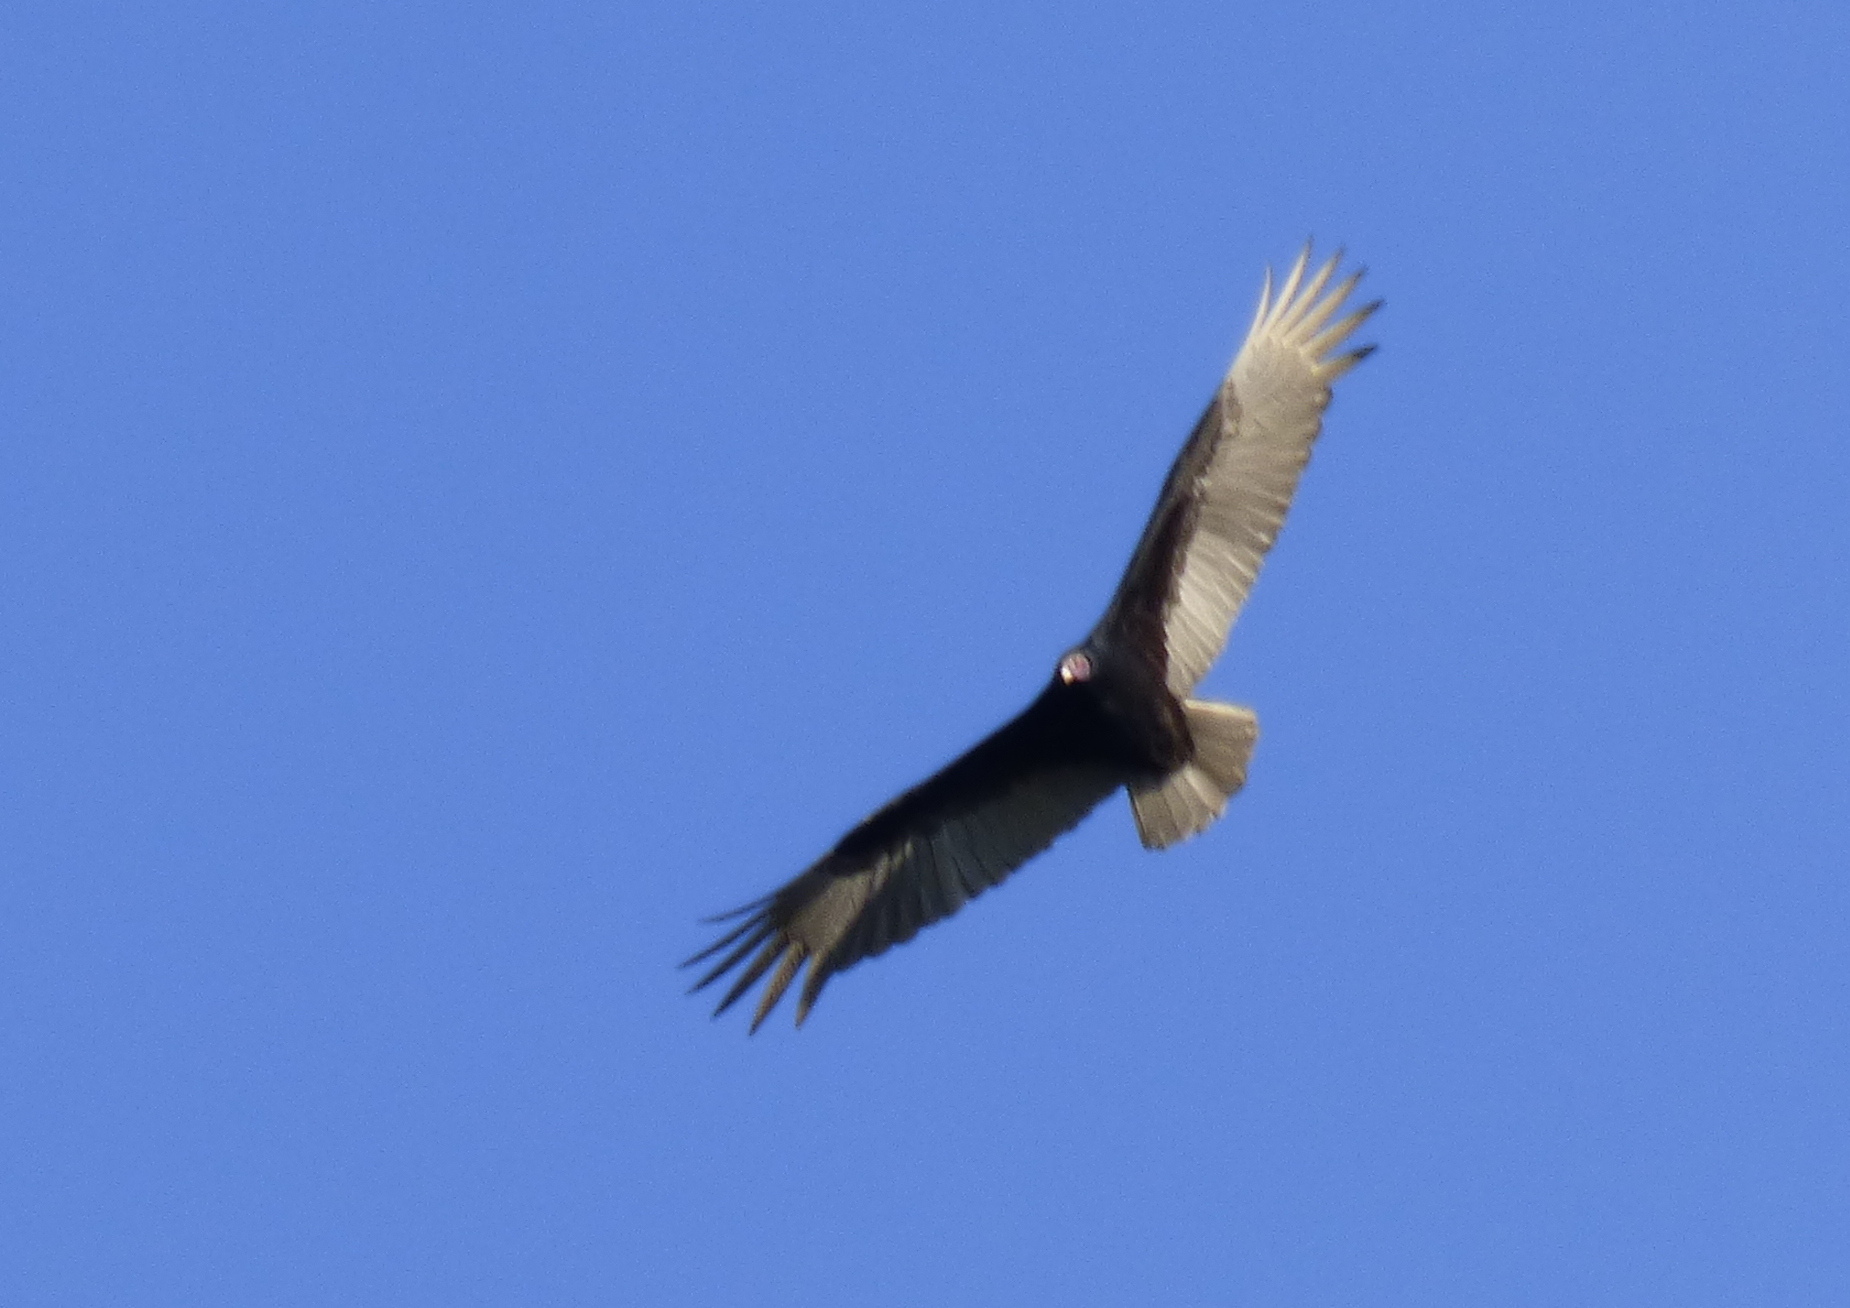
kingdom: Animalia
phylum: Chordata
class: Aves
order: Accipitriformes
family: Cathartidae
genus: Cathartes
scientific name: Cathartes aura
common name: Turkey vulture
